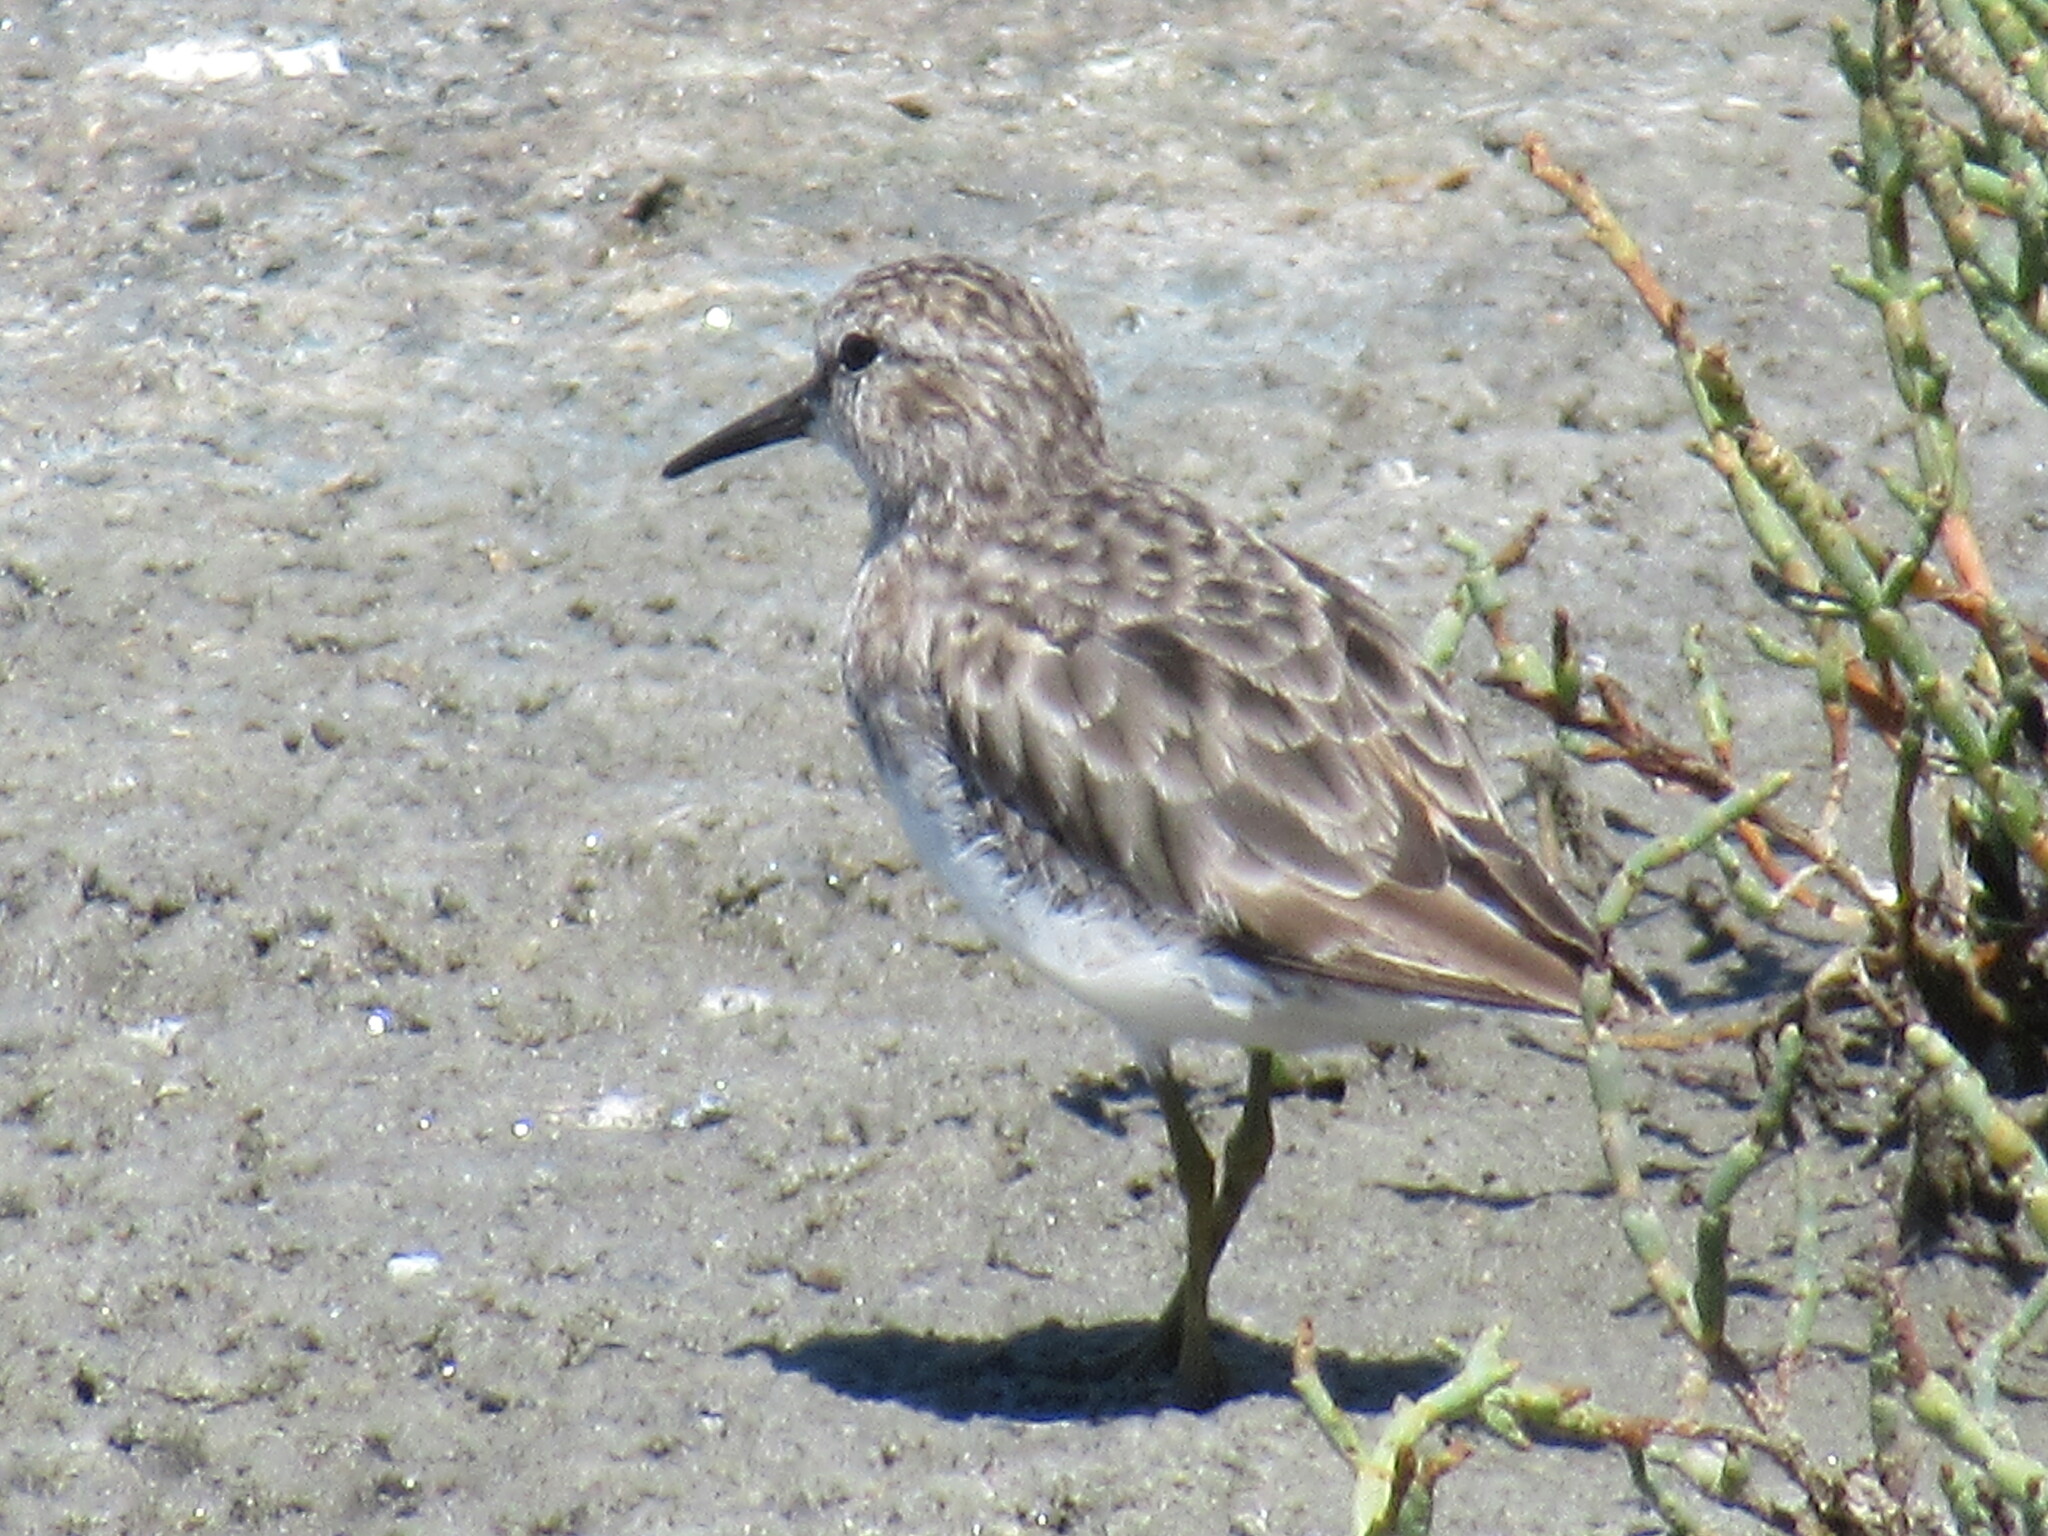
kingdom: Animalia
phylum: Chordata
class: Aves
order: Charadriiformes
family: Scolopacidae
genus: Calidris
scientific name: Calidris minutilla
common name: Least sandpiper
